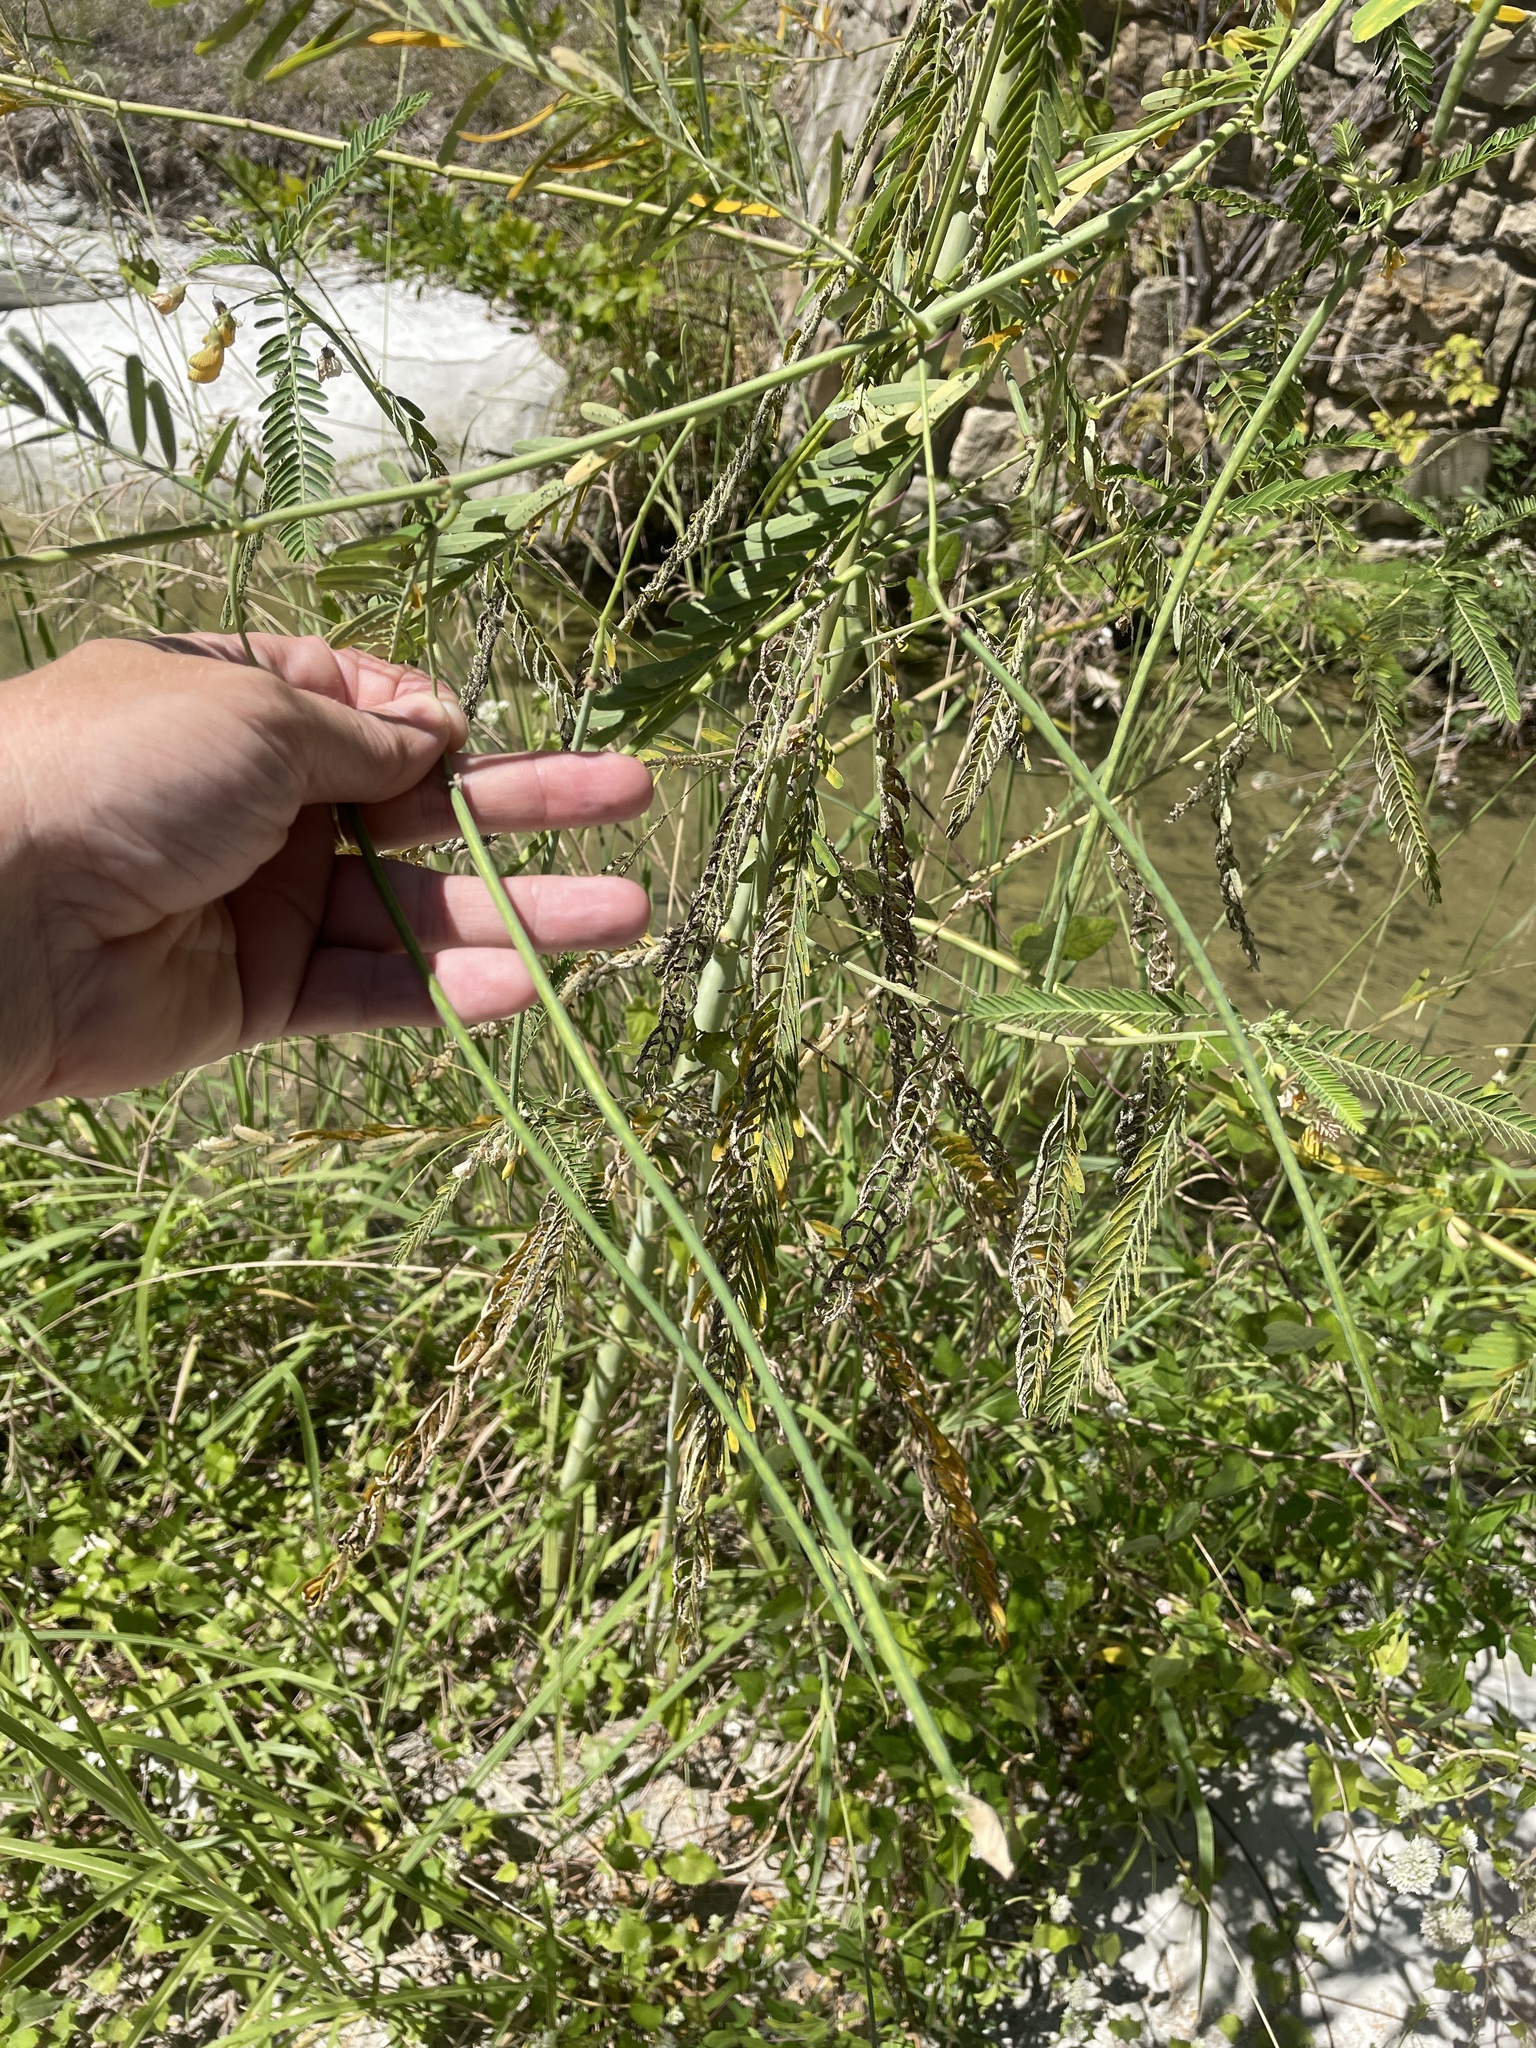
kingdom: Plantae
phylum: Tracheophyta
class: Magnoliopsida
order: Fabales
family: Fabaceae
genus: Sesbania
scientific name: Sesbania herbacea
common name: Bigpod sesbania
